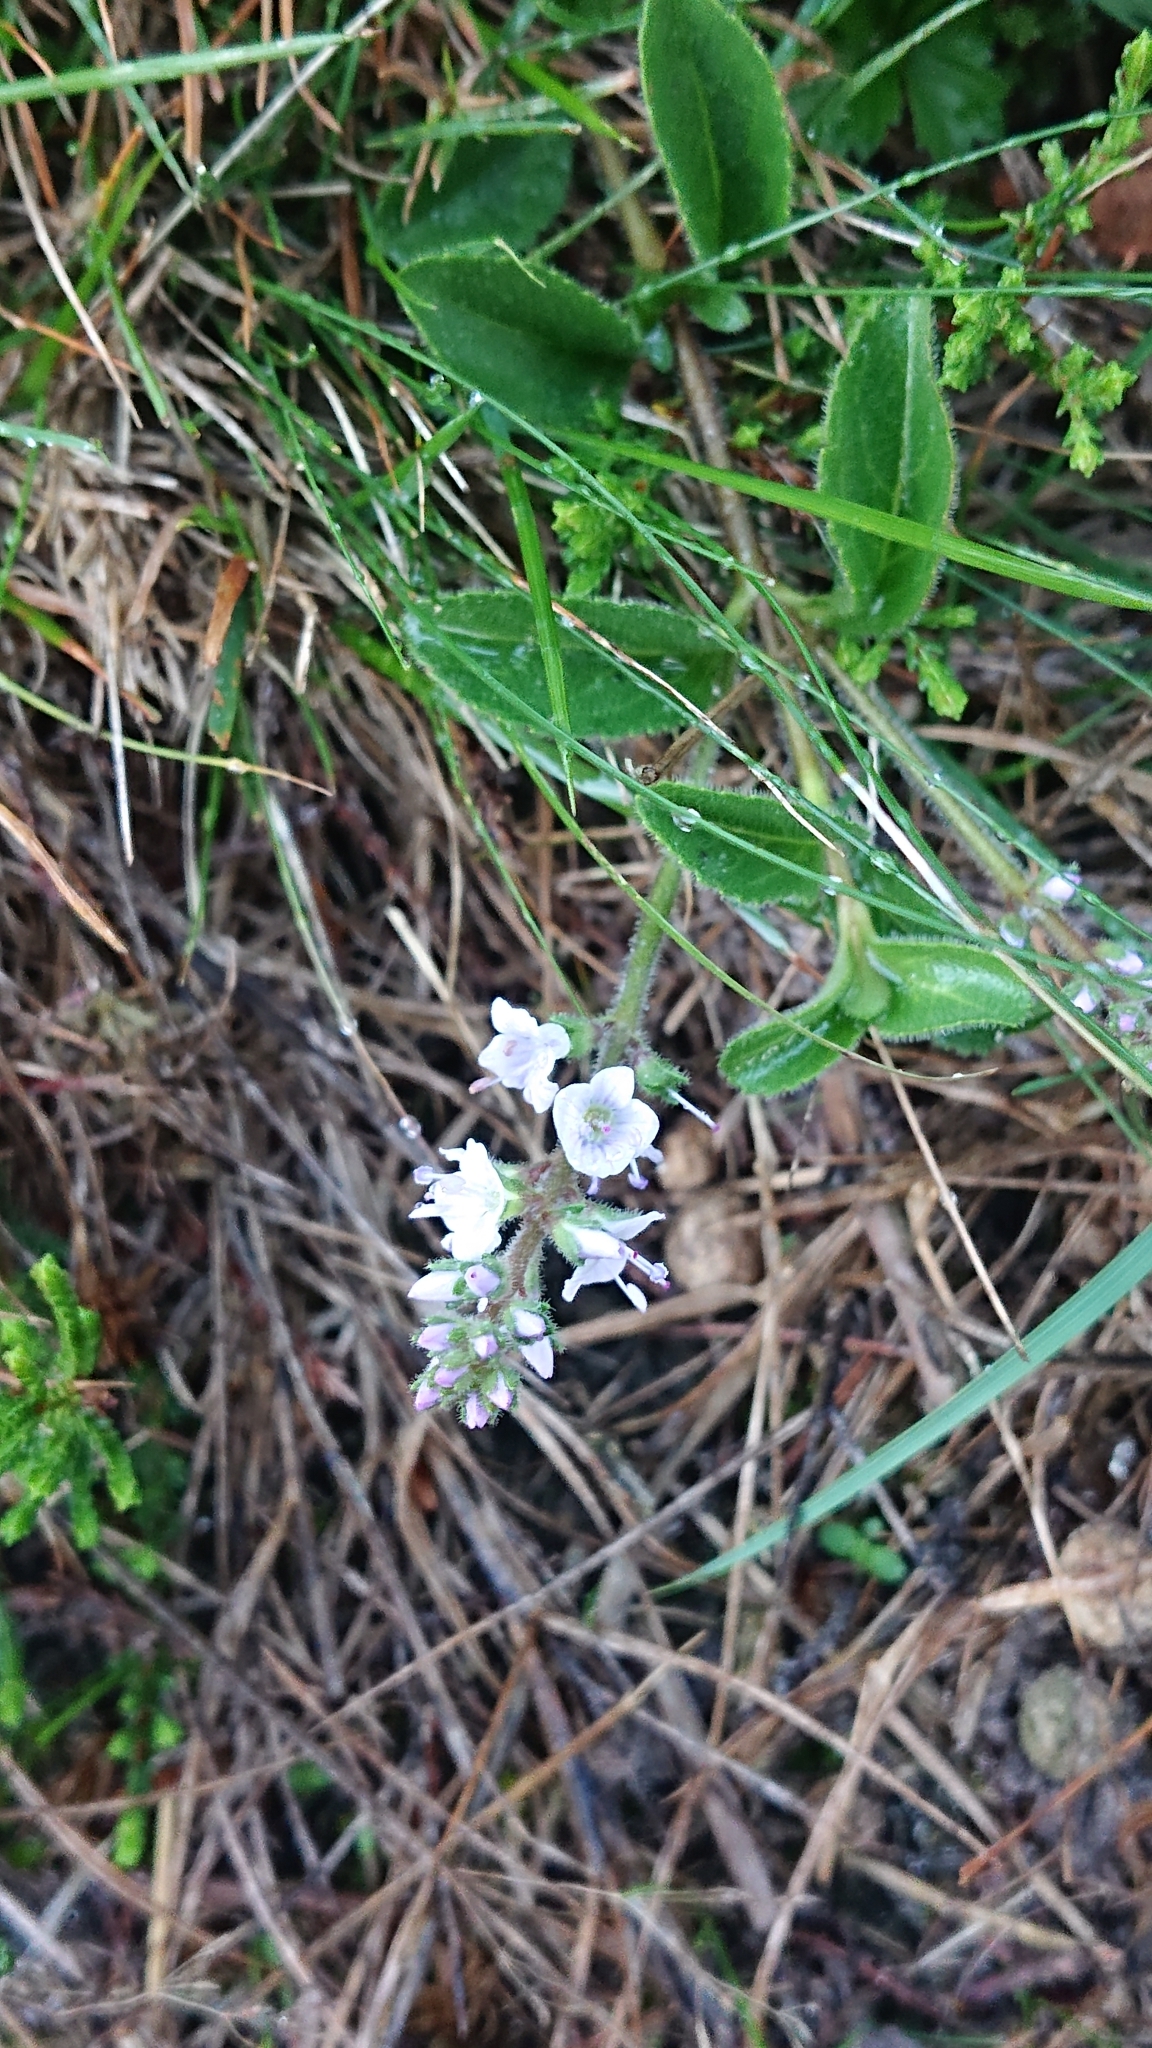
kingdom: Plantae
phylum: Tracheophyta
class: Magnoliopsida
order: Lamiales
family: Plantaginaceae
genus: Veronica
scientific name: Veronica officinalis
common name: Common speedwell
